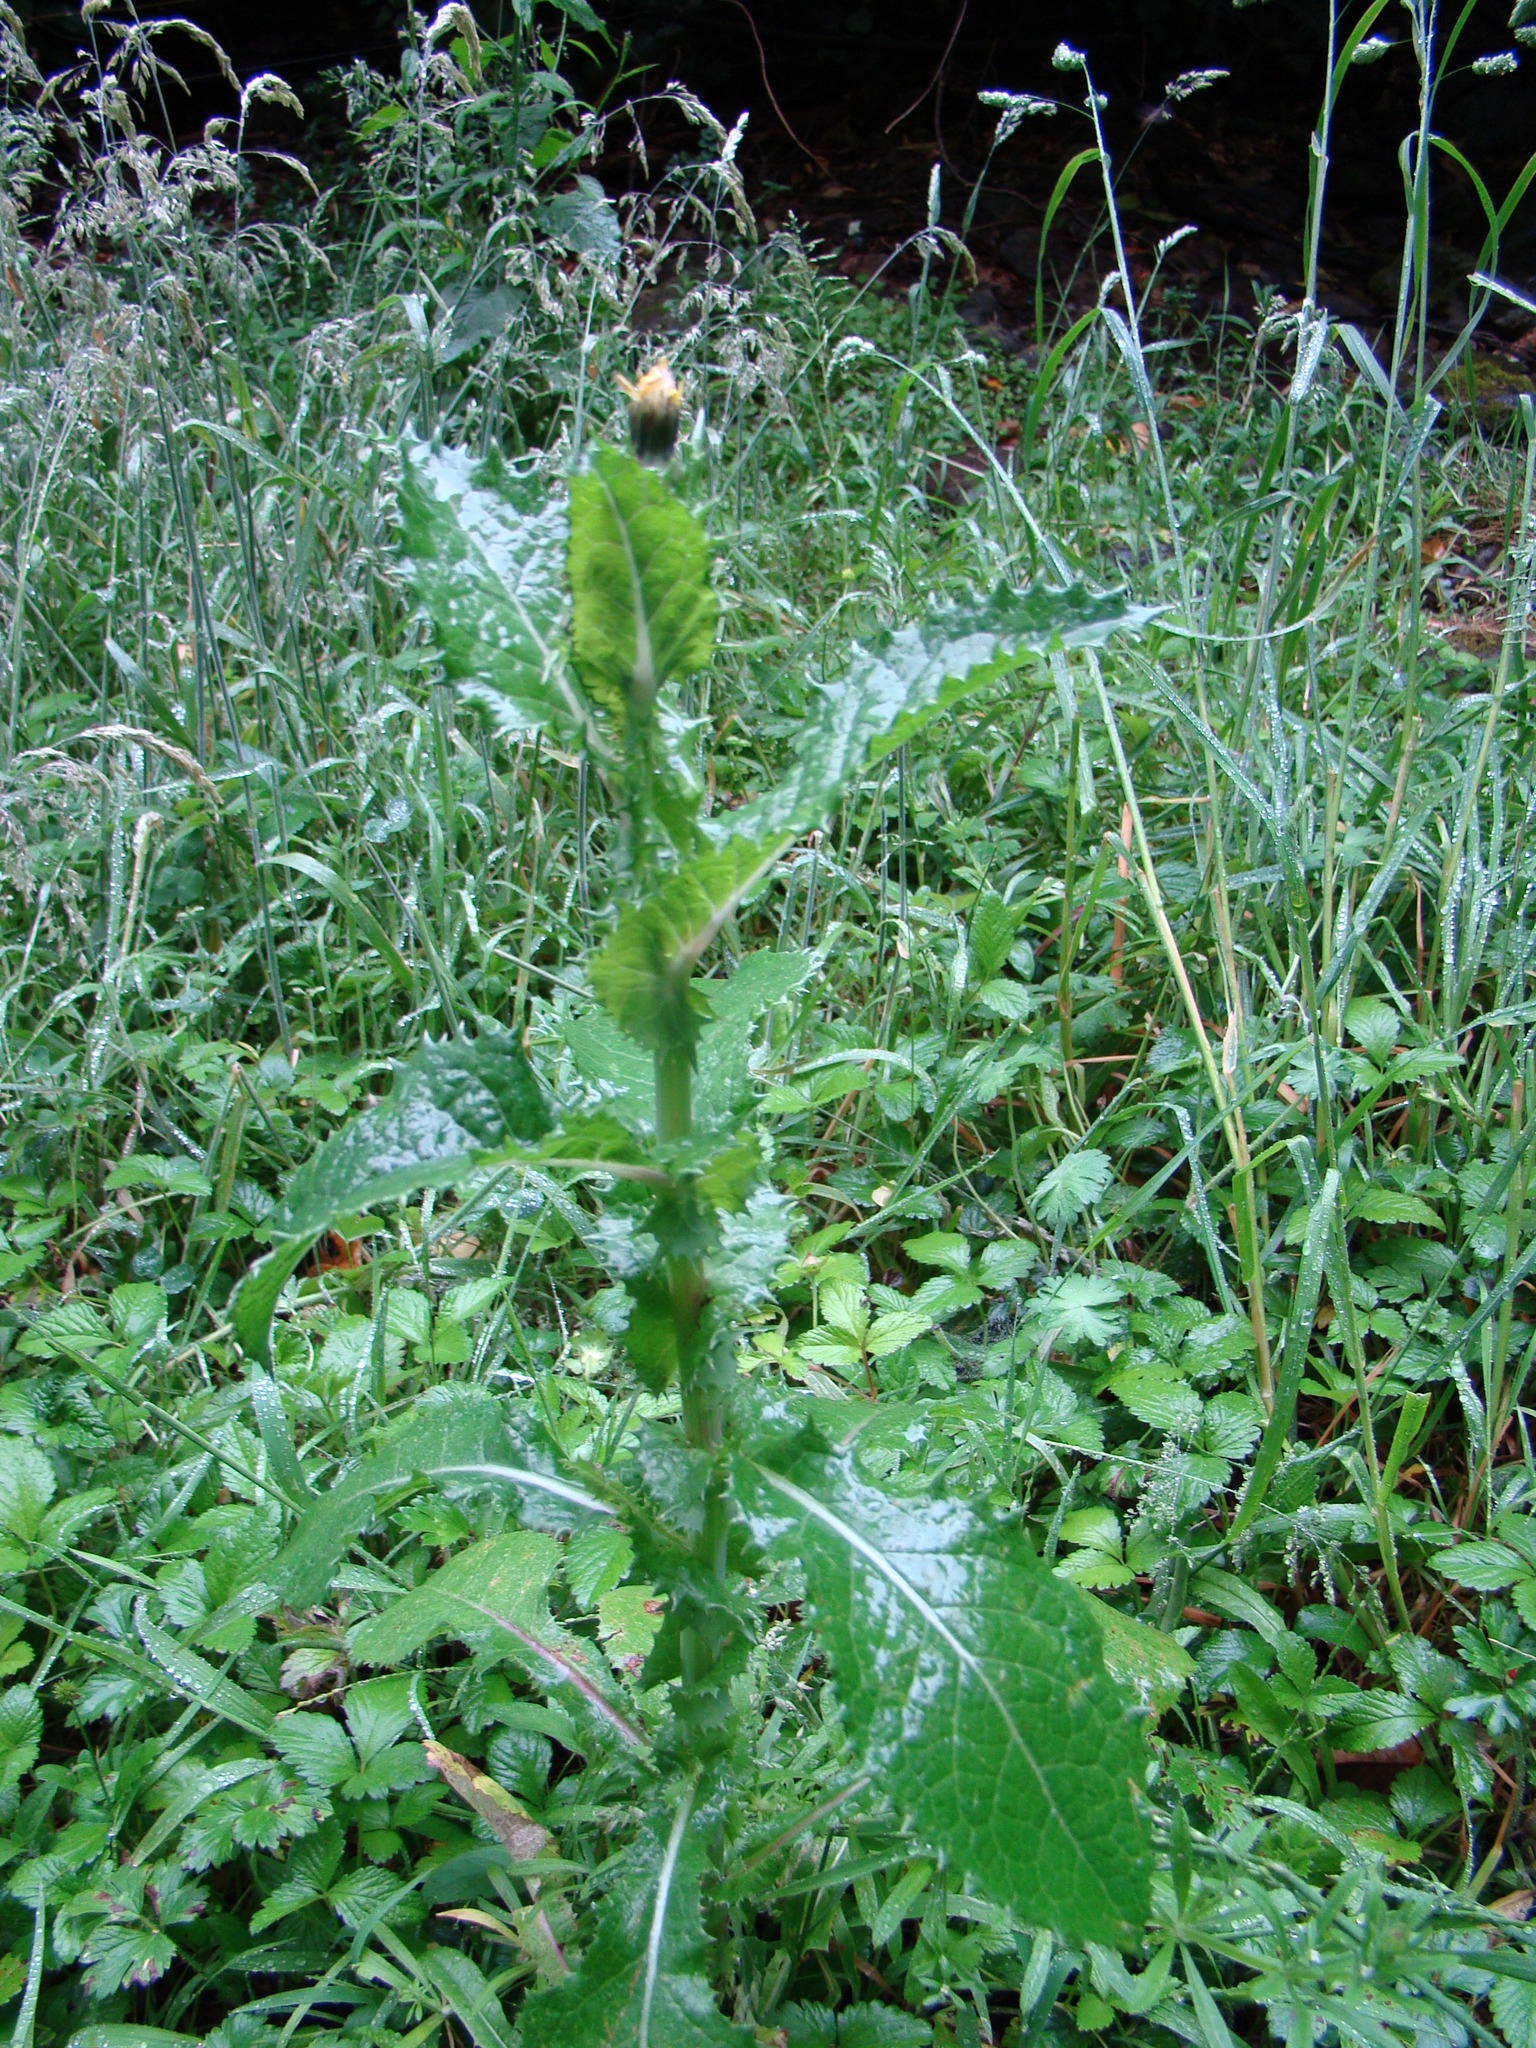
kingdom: Plantae
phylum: Tracheophyta
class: Magnoliopsida
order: Asterales
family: Asteraceae
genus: Sonchus
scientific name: Sonchus asper
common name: Prickly sow-thistle
